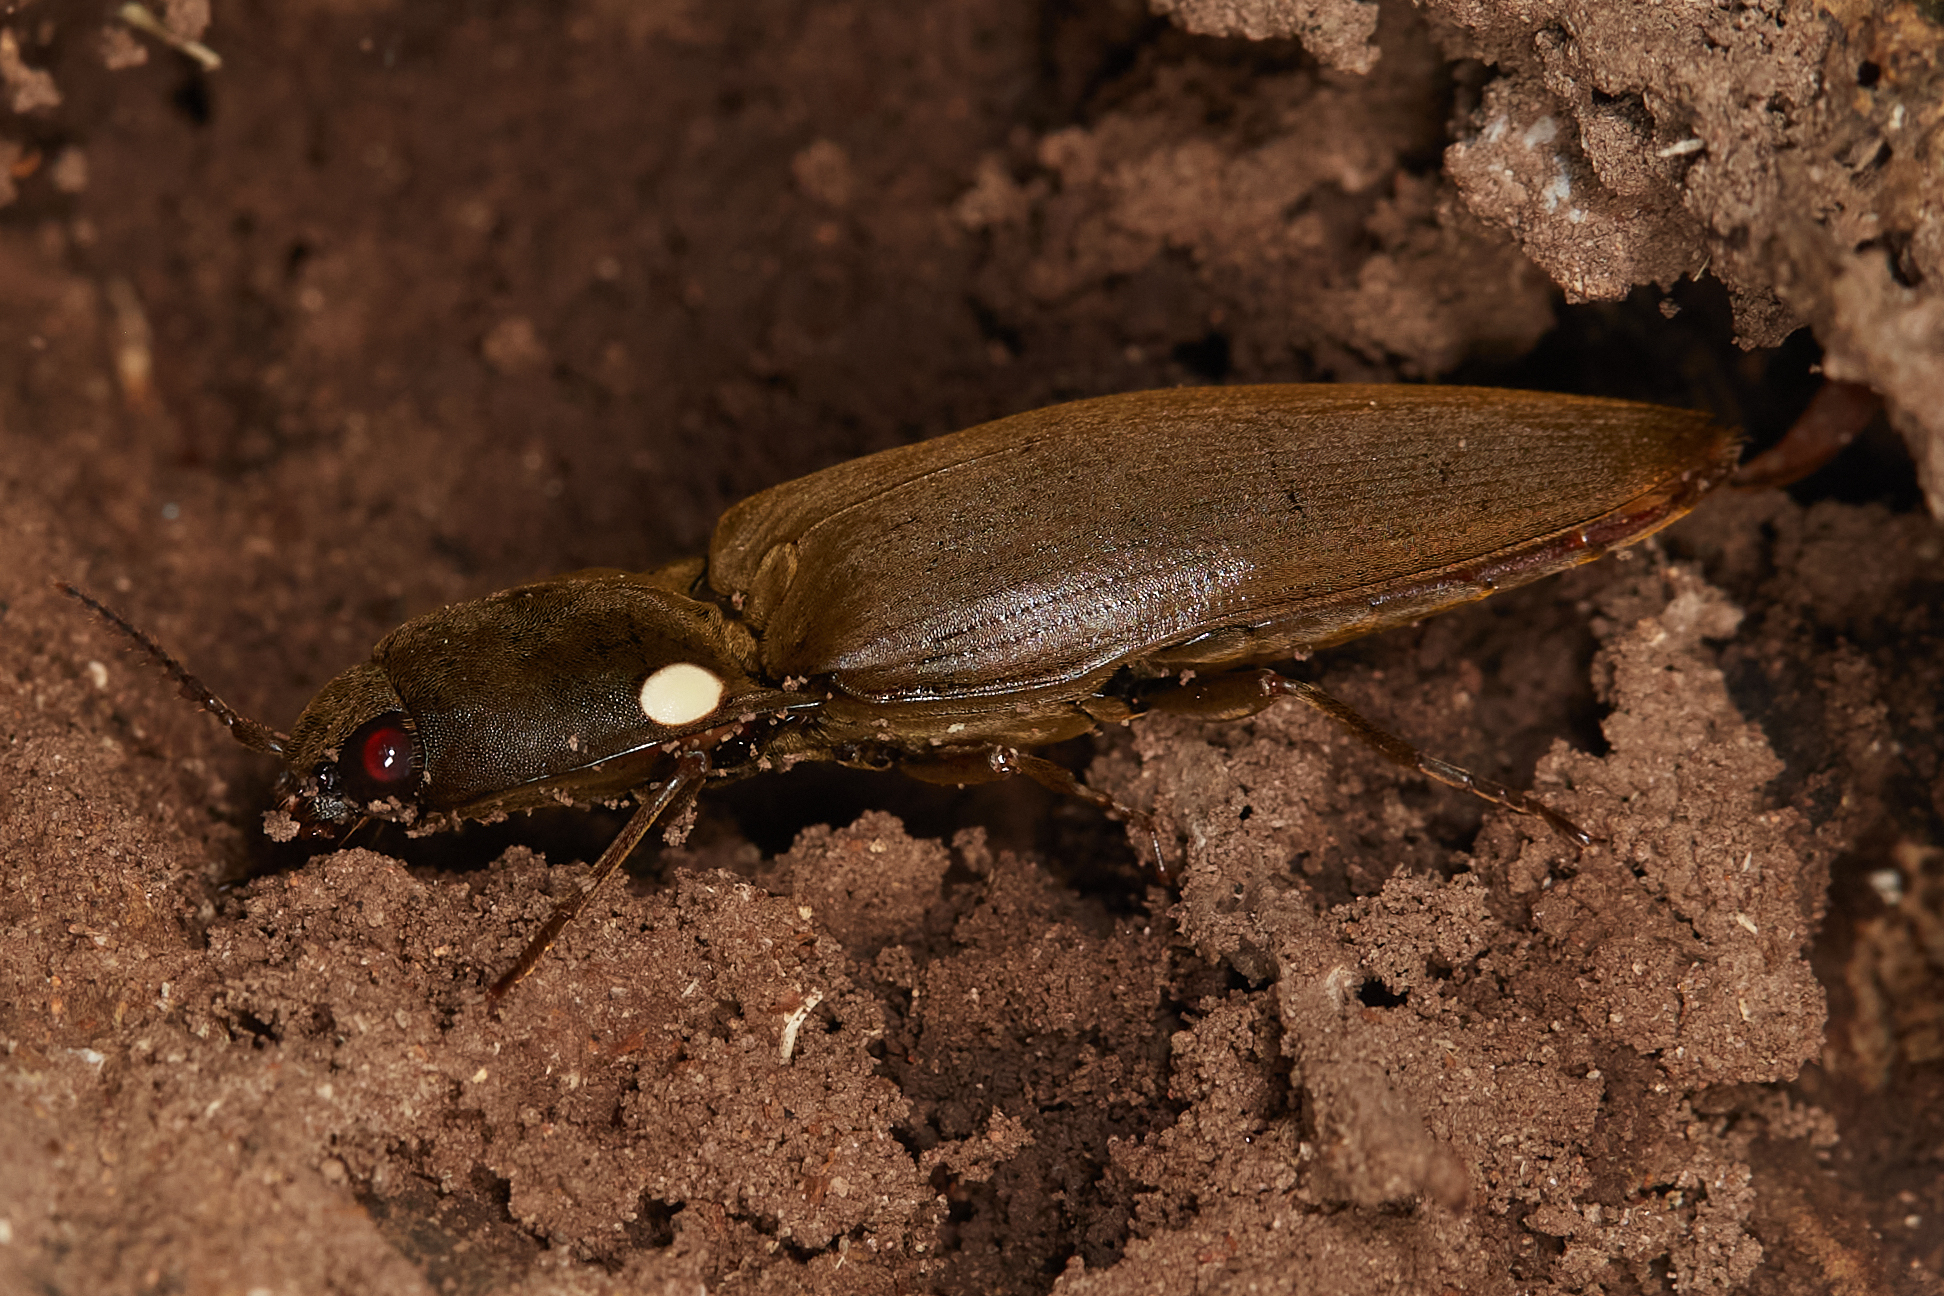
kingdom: Animalia
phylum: Arthropoda
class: Insecta
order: Coleoptera
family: Elateridae
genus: Pyrophorus
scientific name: Pyrophorus noctilucus
